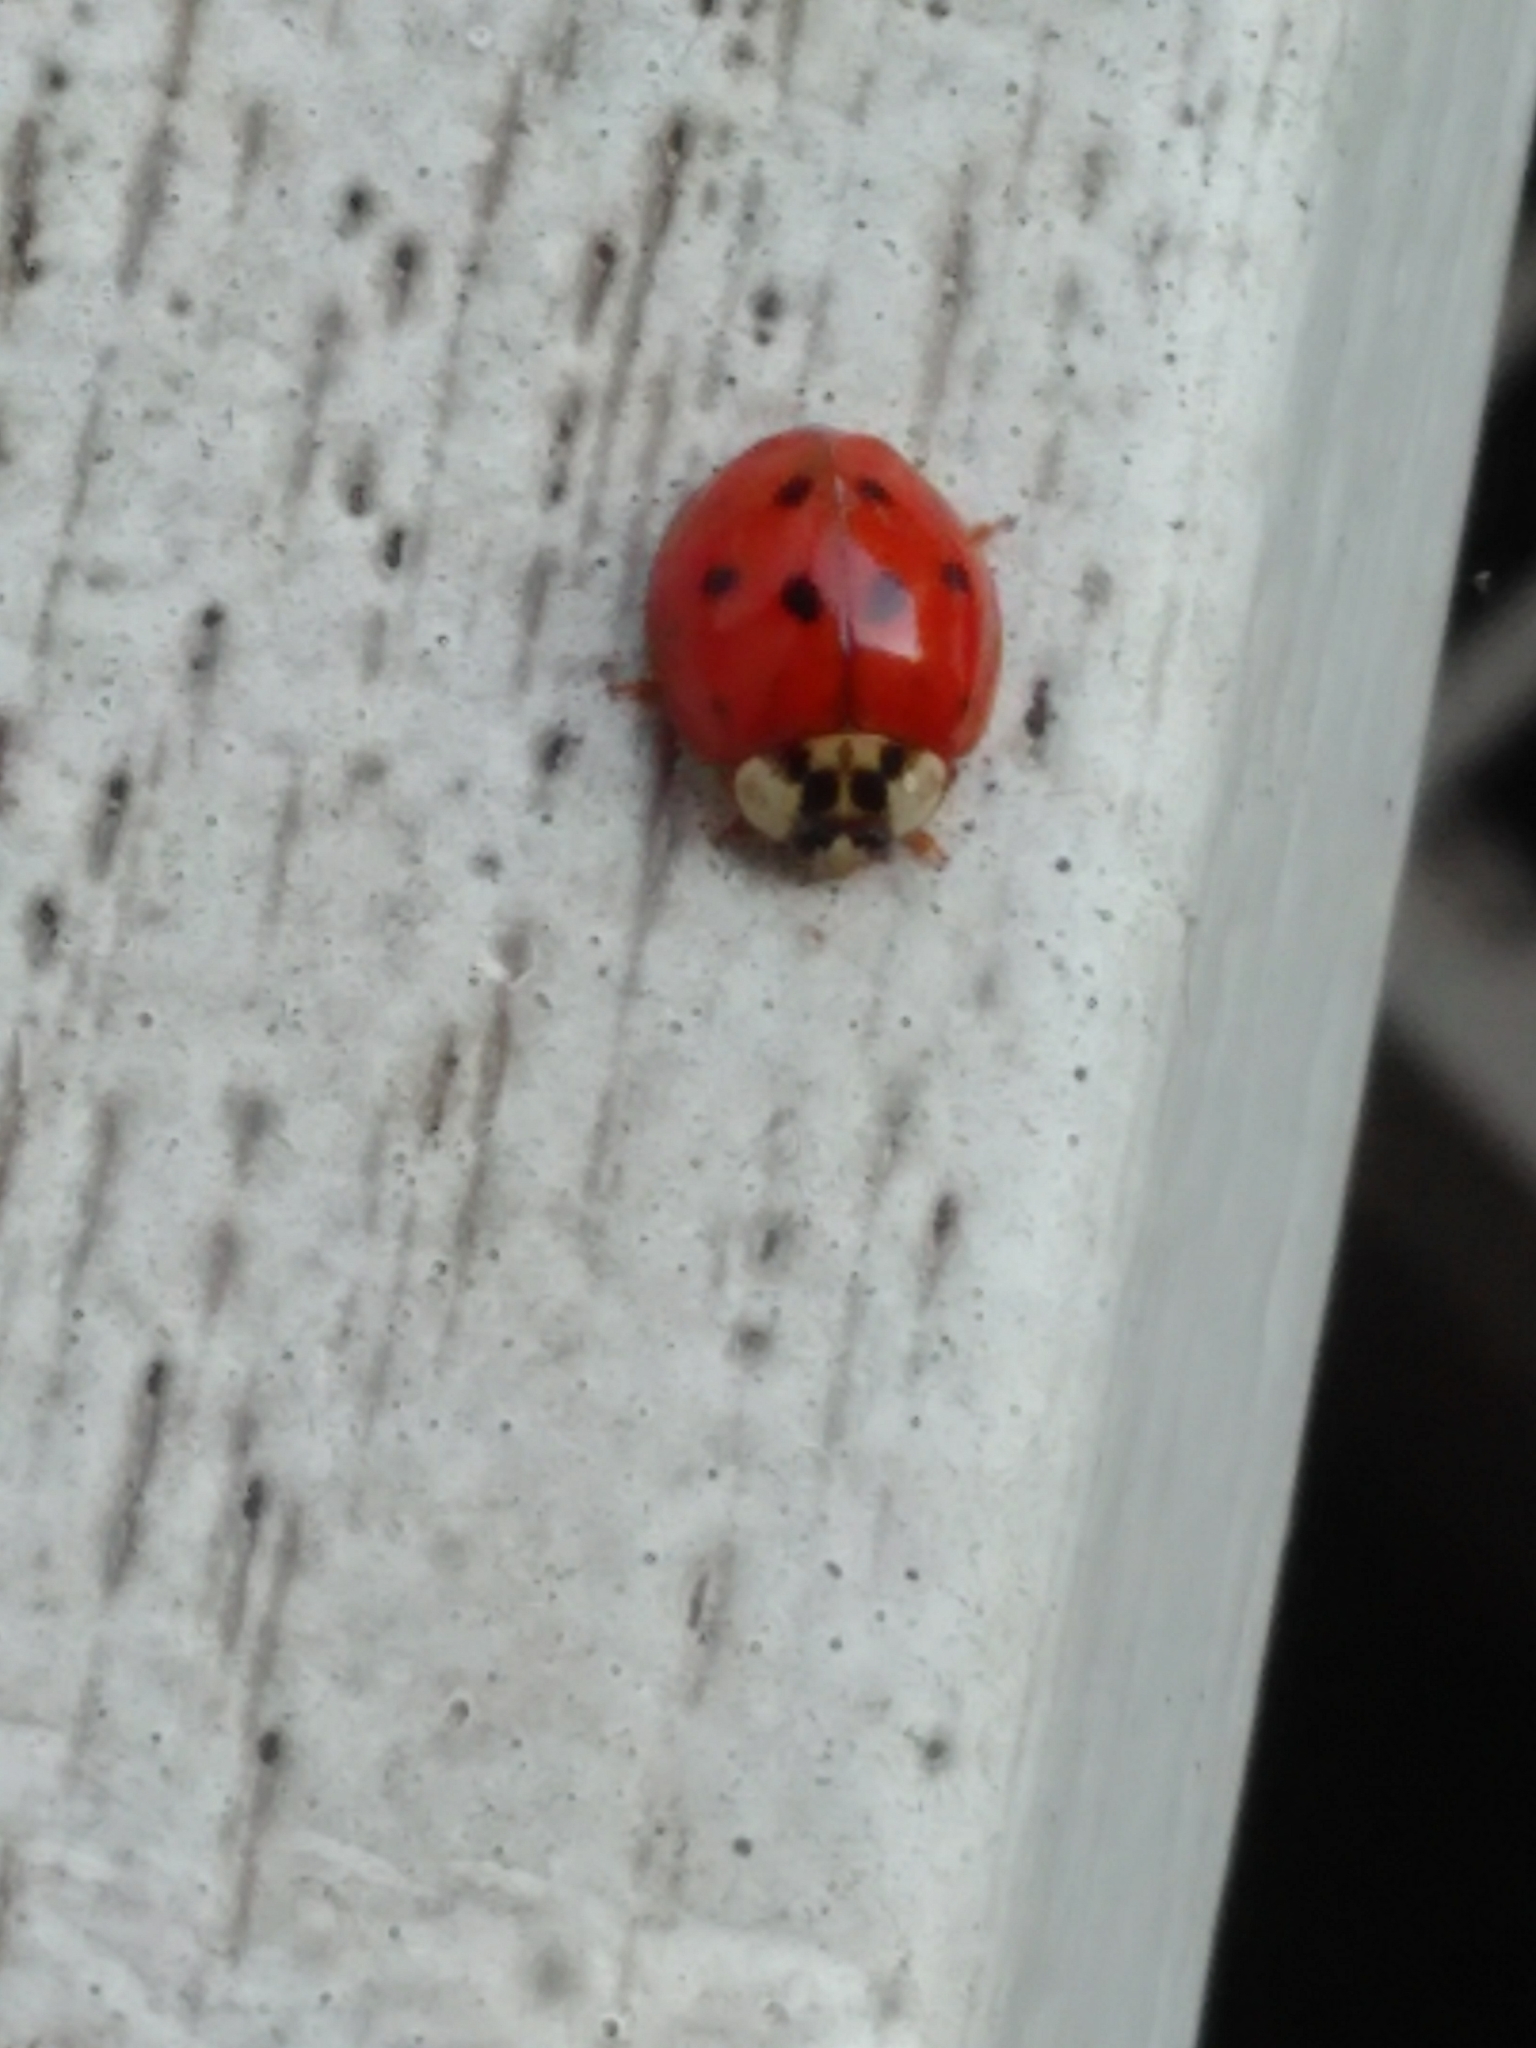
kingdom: Animalia
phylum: Arthropoda
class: Insecta
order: Coleoptera
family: Coccinellidae
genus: Harmonia
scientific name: Harmonia axyridis
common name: Harlequin ladybird
